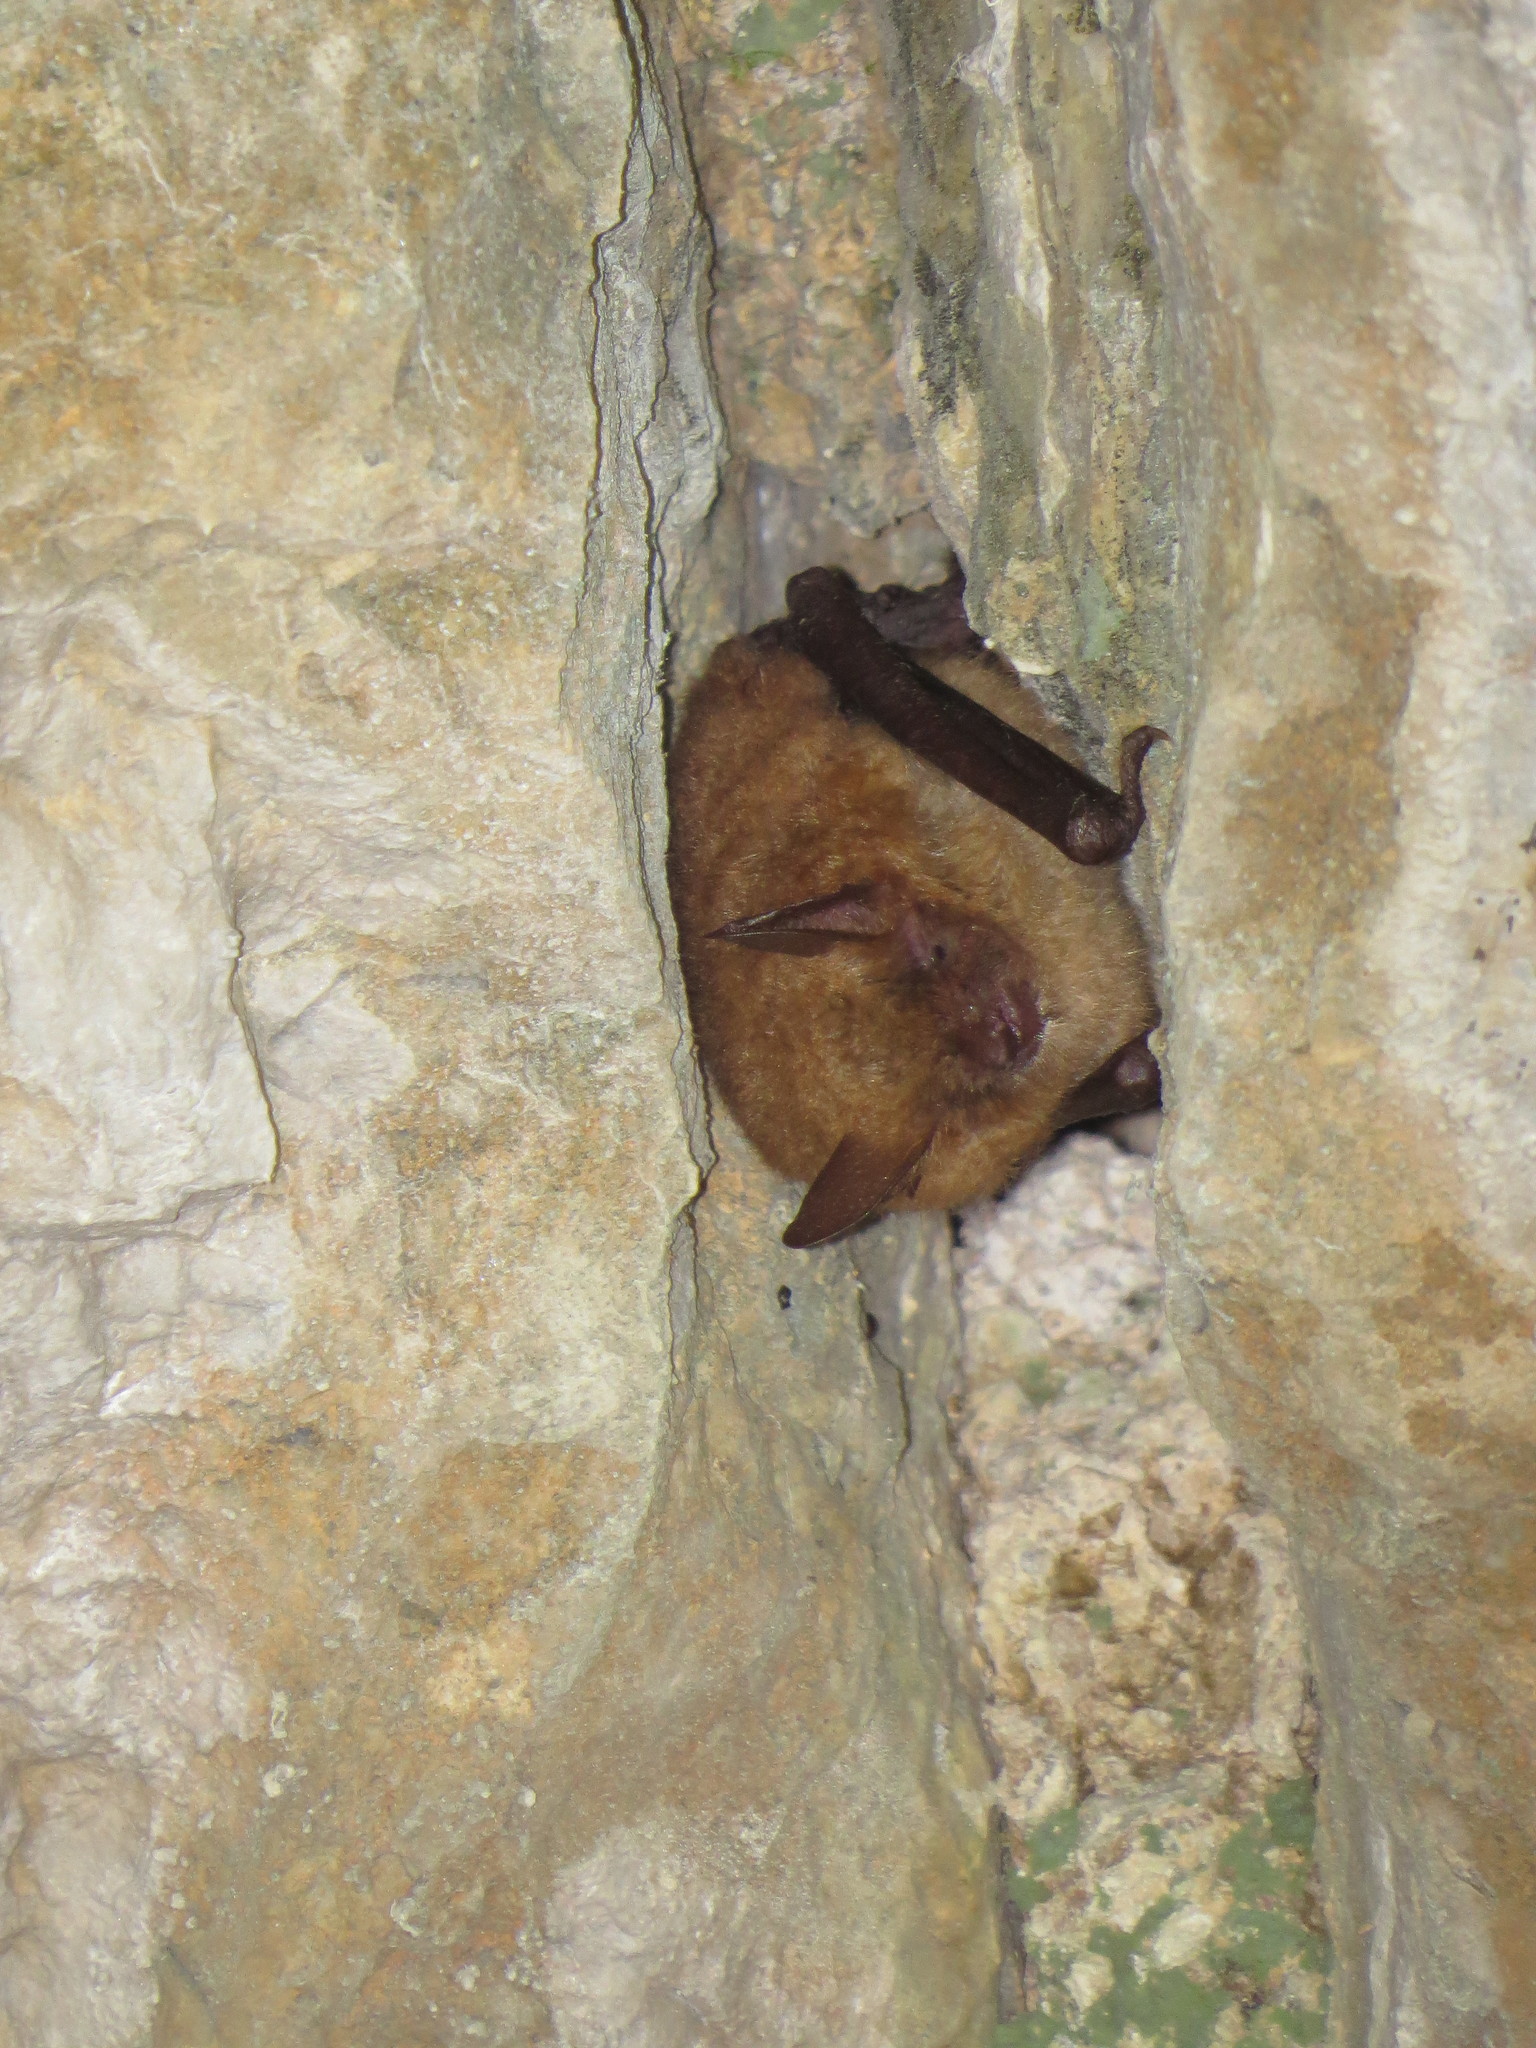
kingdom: Animalia
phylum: Chordata
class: Mammalia
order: Chiroptera
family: Vespertilionidae
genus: Myotis
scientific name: Myotis emarginatus
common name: Geoffroy's bat
